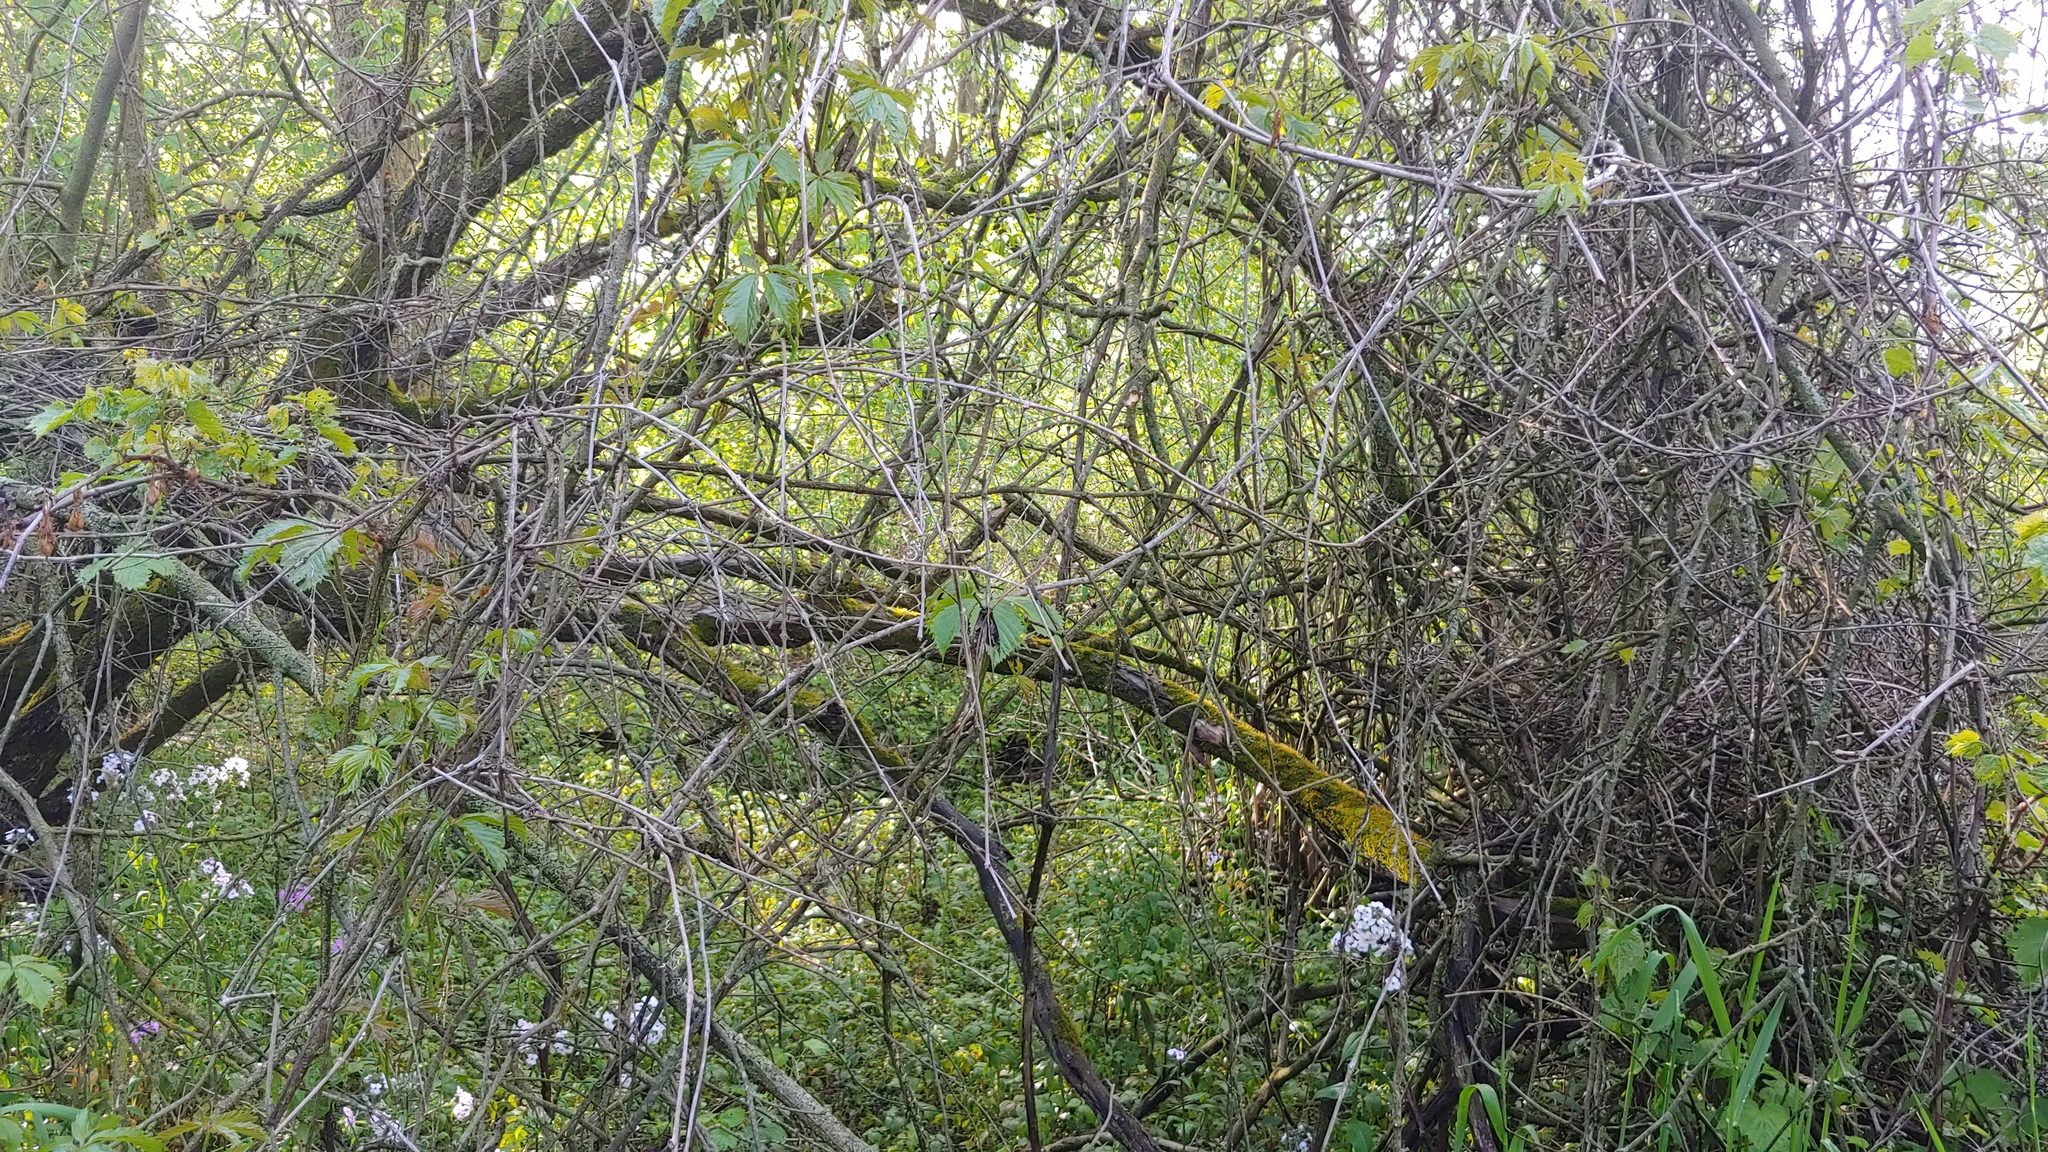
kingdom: Plantae
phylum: Tracheophyta
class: Magnoliopsida
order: Vitales
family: Vitaceae
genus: Parthenocissus
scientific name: Parthenocissus quinquefolia
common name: Virginia-creeper
